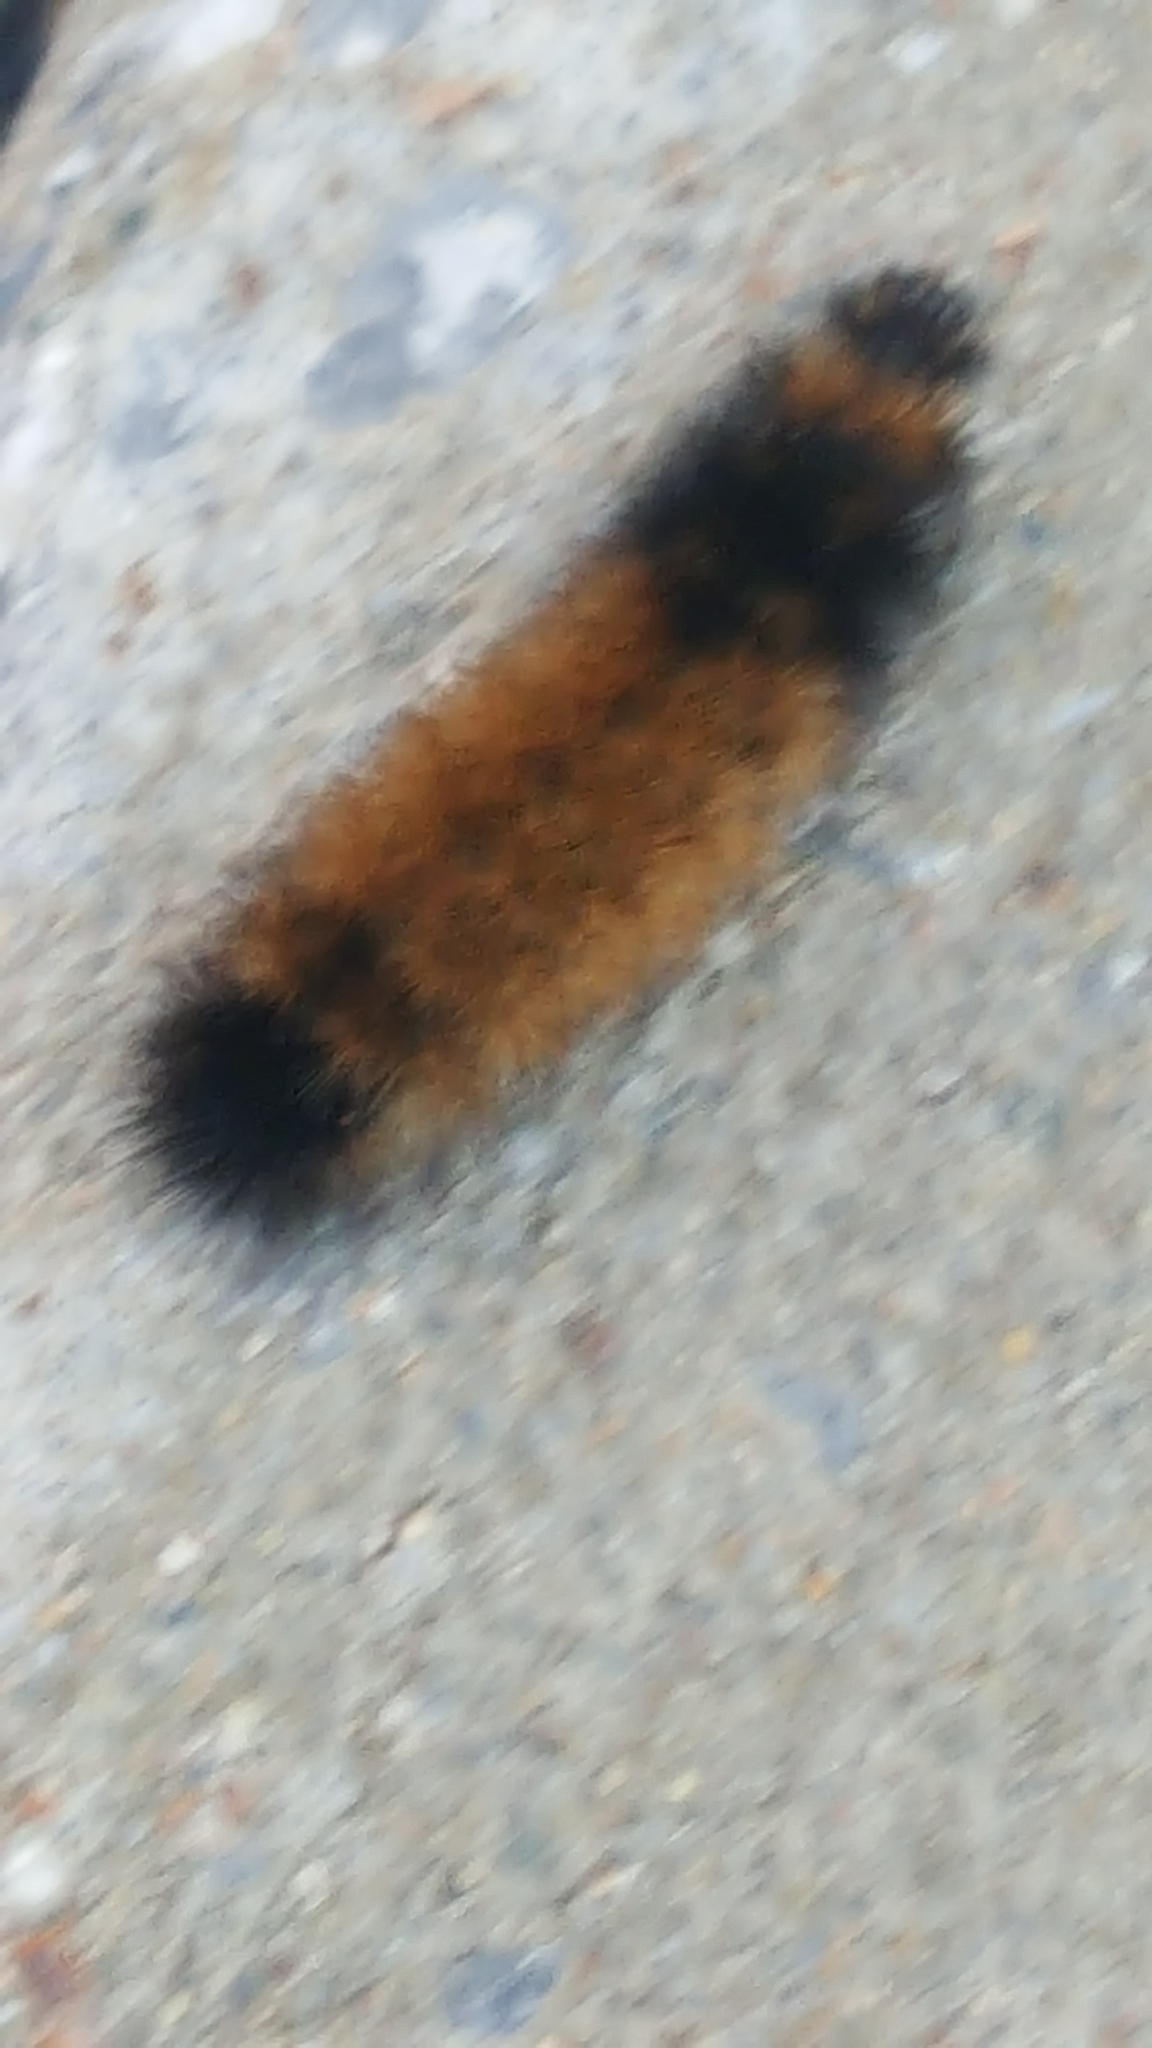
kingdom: Animalia
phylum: Arthropoda
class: Insecta
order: Lepidoptera
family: Erebidae
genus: Pyrrharctia
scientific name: Pyrrharctia isabella
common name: Isabella tiger moth
